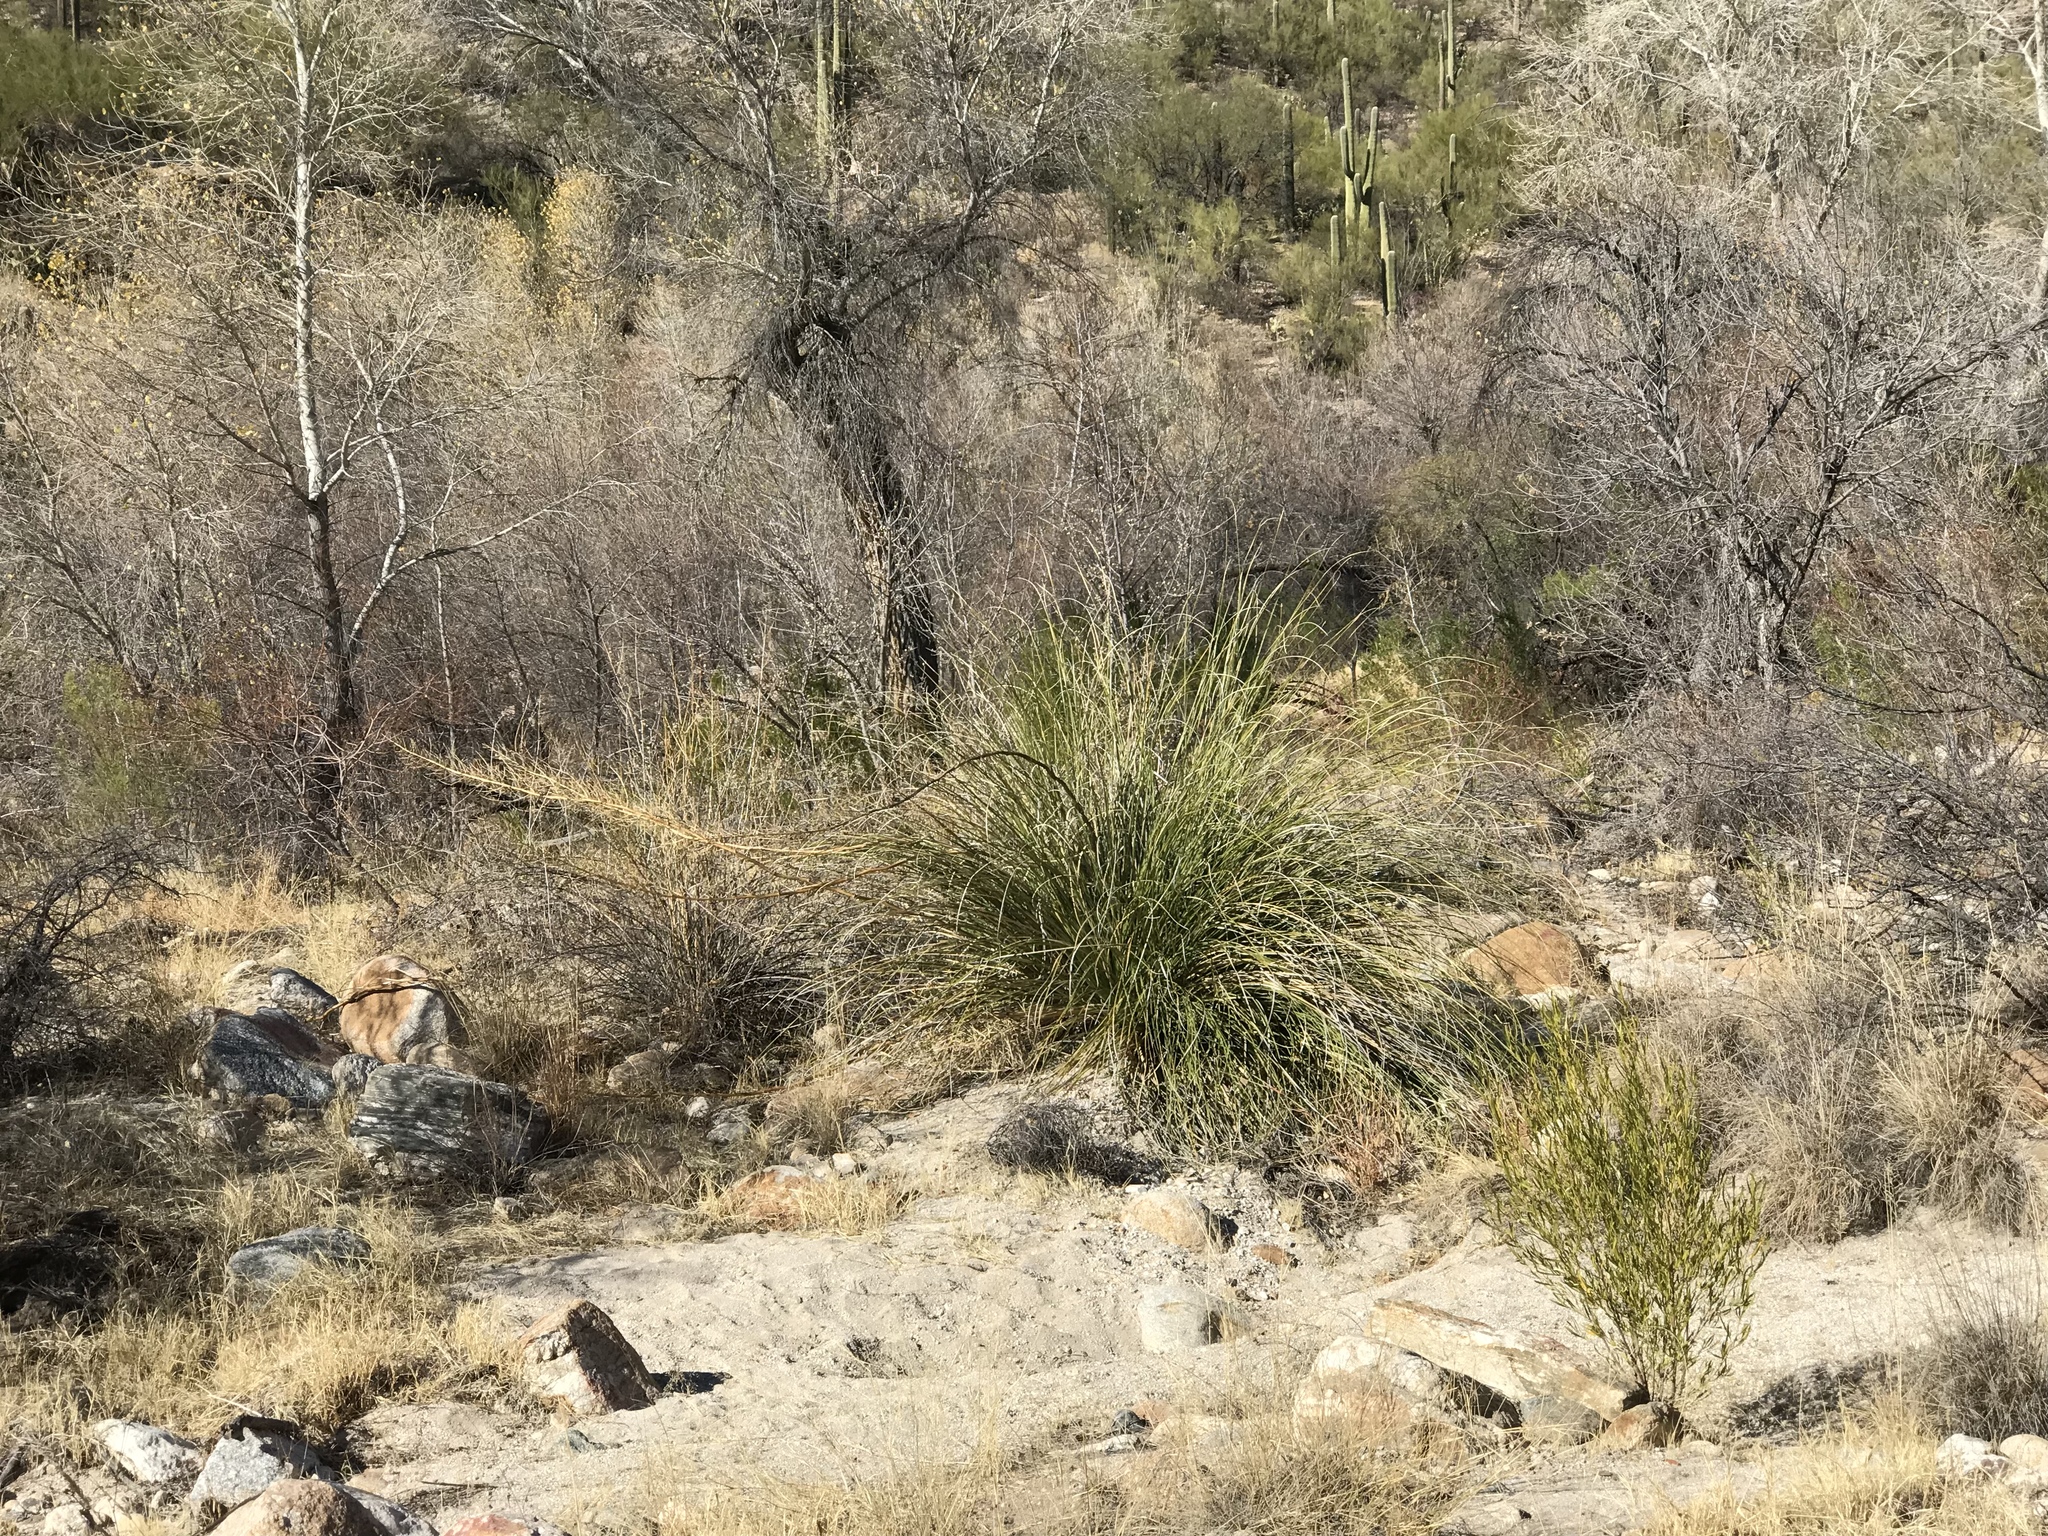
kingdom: Plantae
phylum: Tracheophyta
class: Liliopsida
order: Asparagales
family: Asparagaceae
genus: Nolina
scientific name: Nolina microcarpa
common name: Bear-grass
